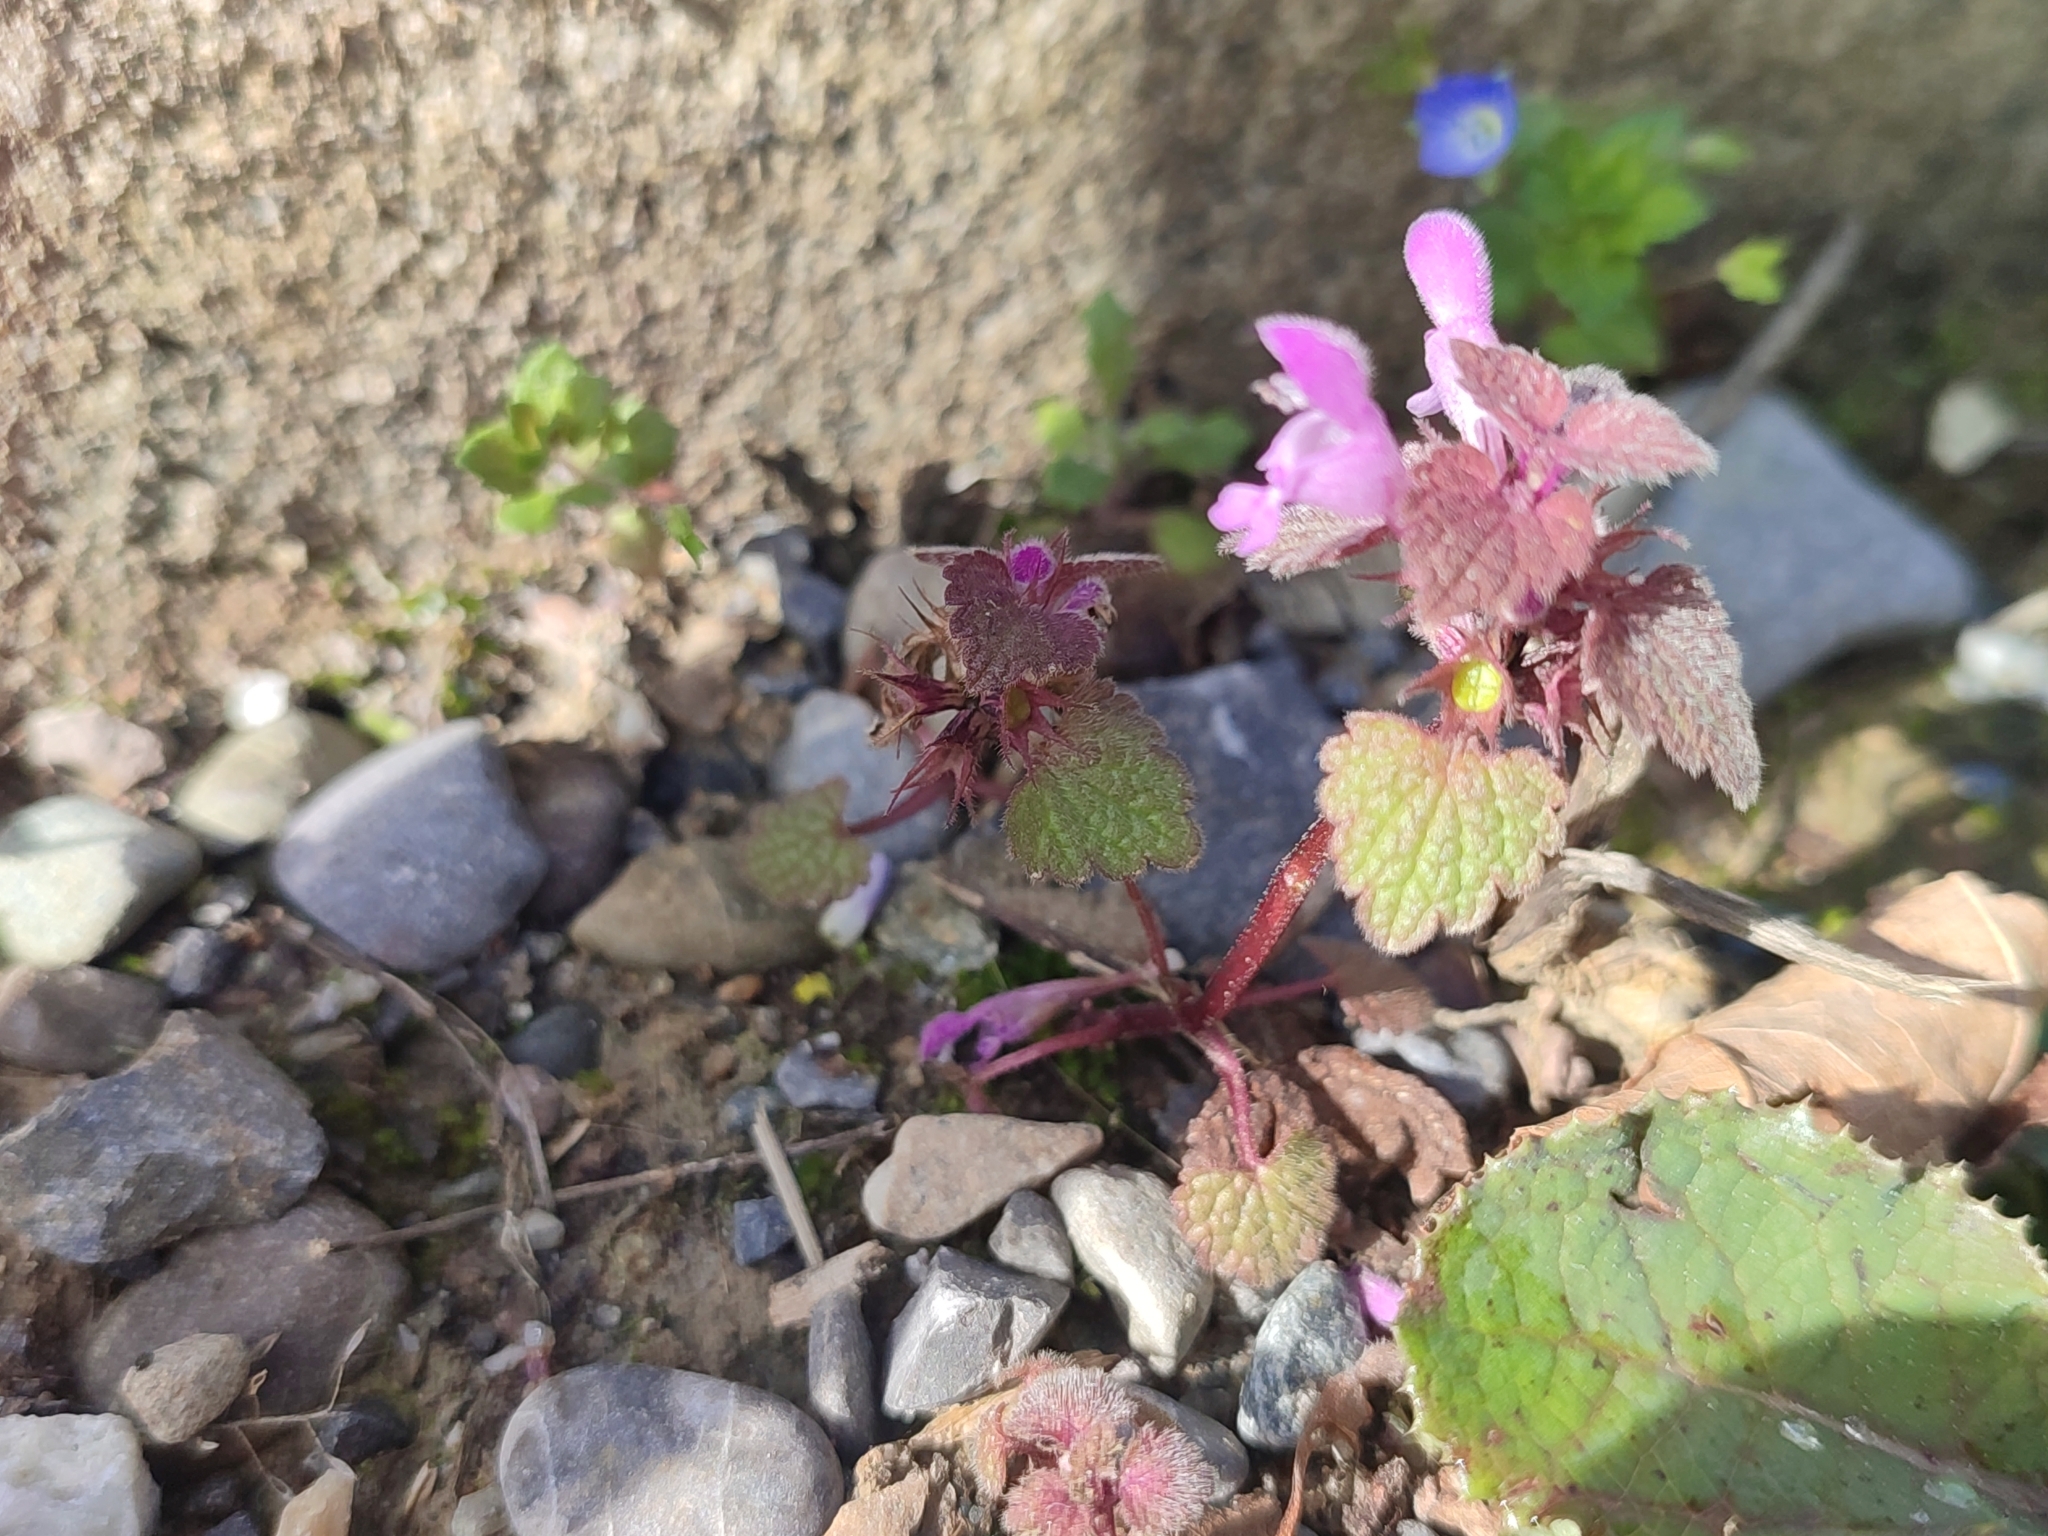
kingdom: Plantae
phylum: Tracheophyta
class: Magnoliopsida
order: Lamiales
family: Lamiaceae
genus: Lamium
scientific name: Lamium purpureum
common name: Red dead-nettle
